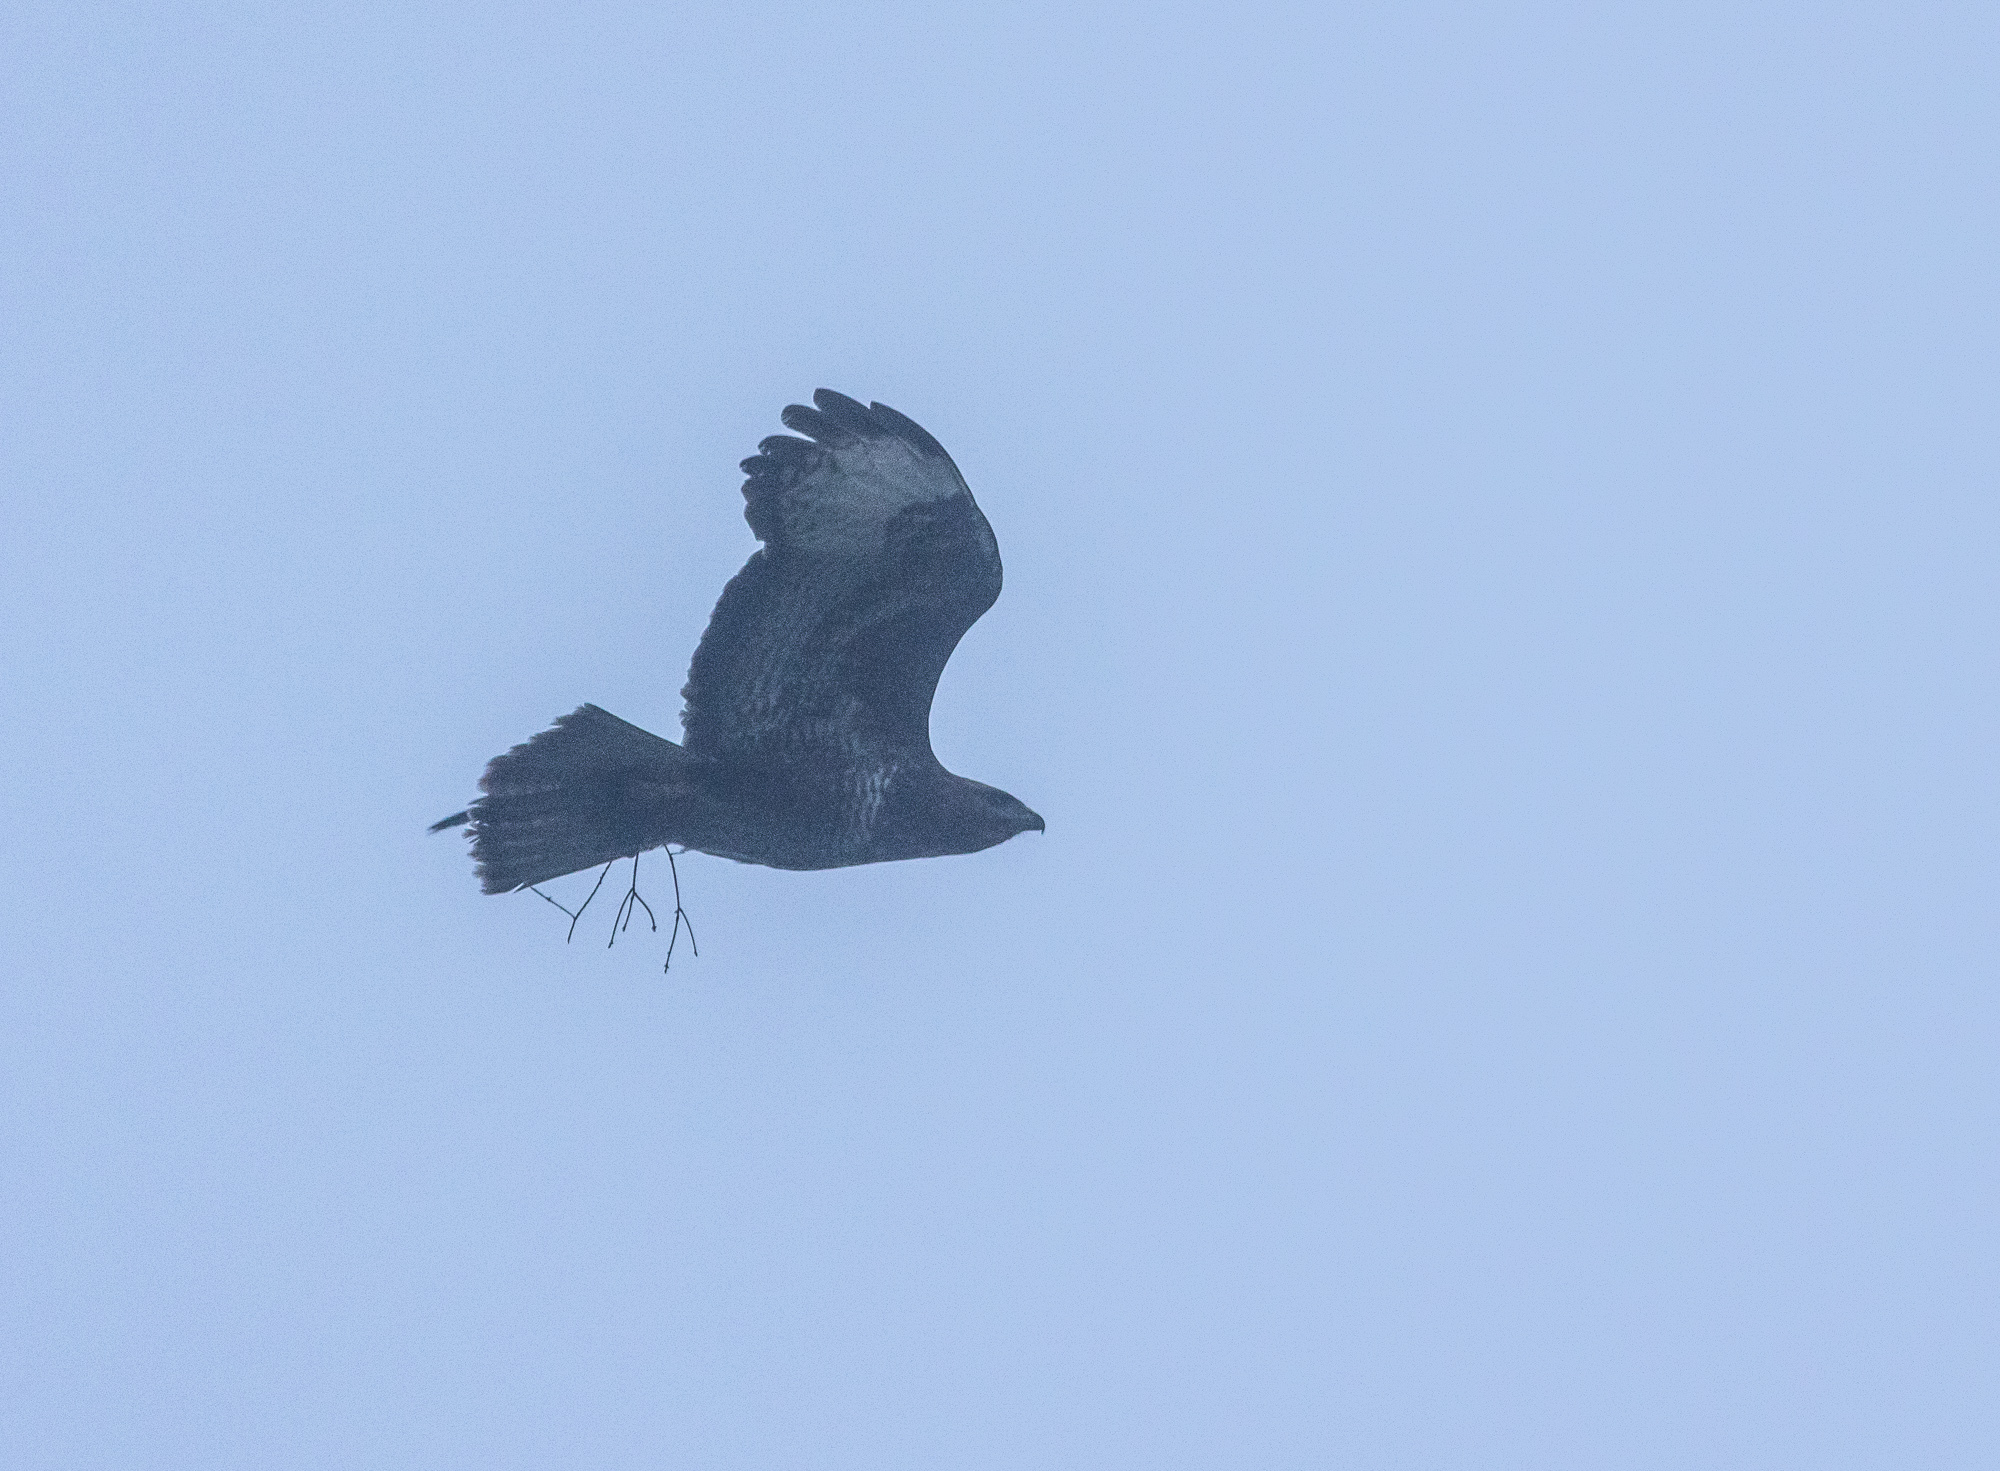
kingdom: Animalia
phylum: Chordata
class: Aves
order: Accipitriformes
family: Accipitridae
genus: Buteo
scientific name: Buteo buteo
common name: Common buzzard
